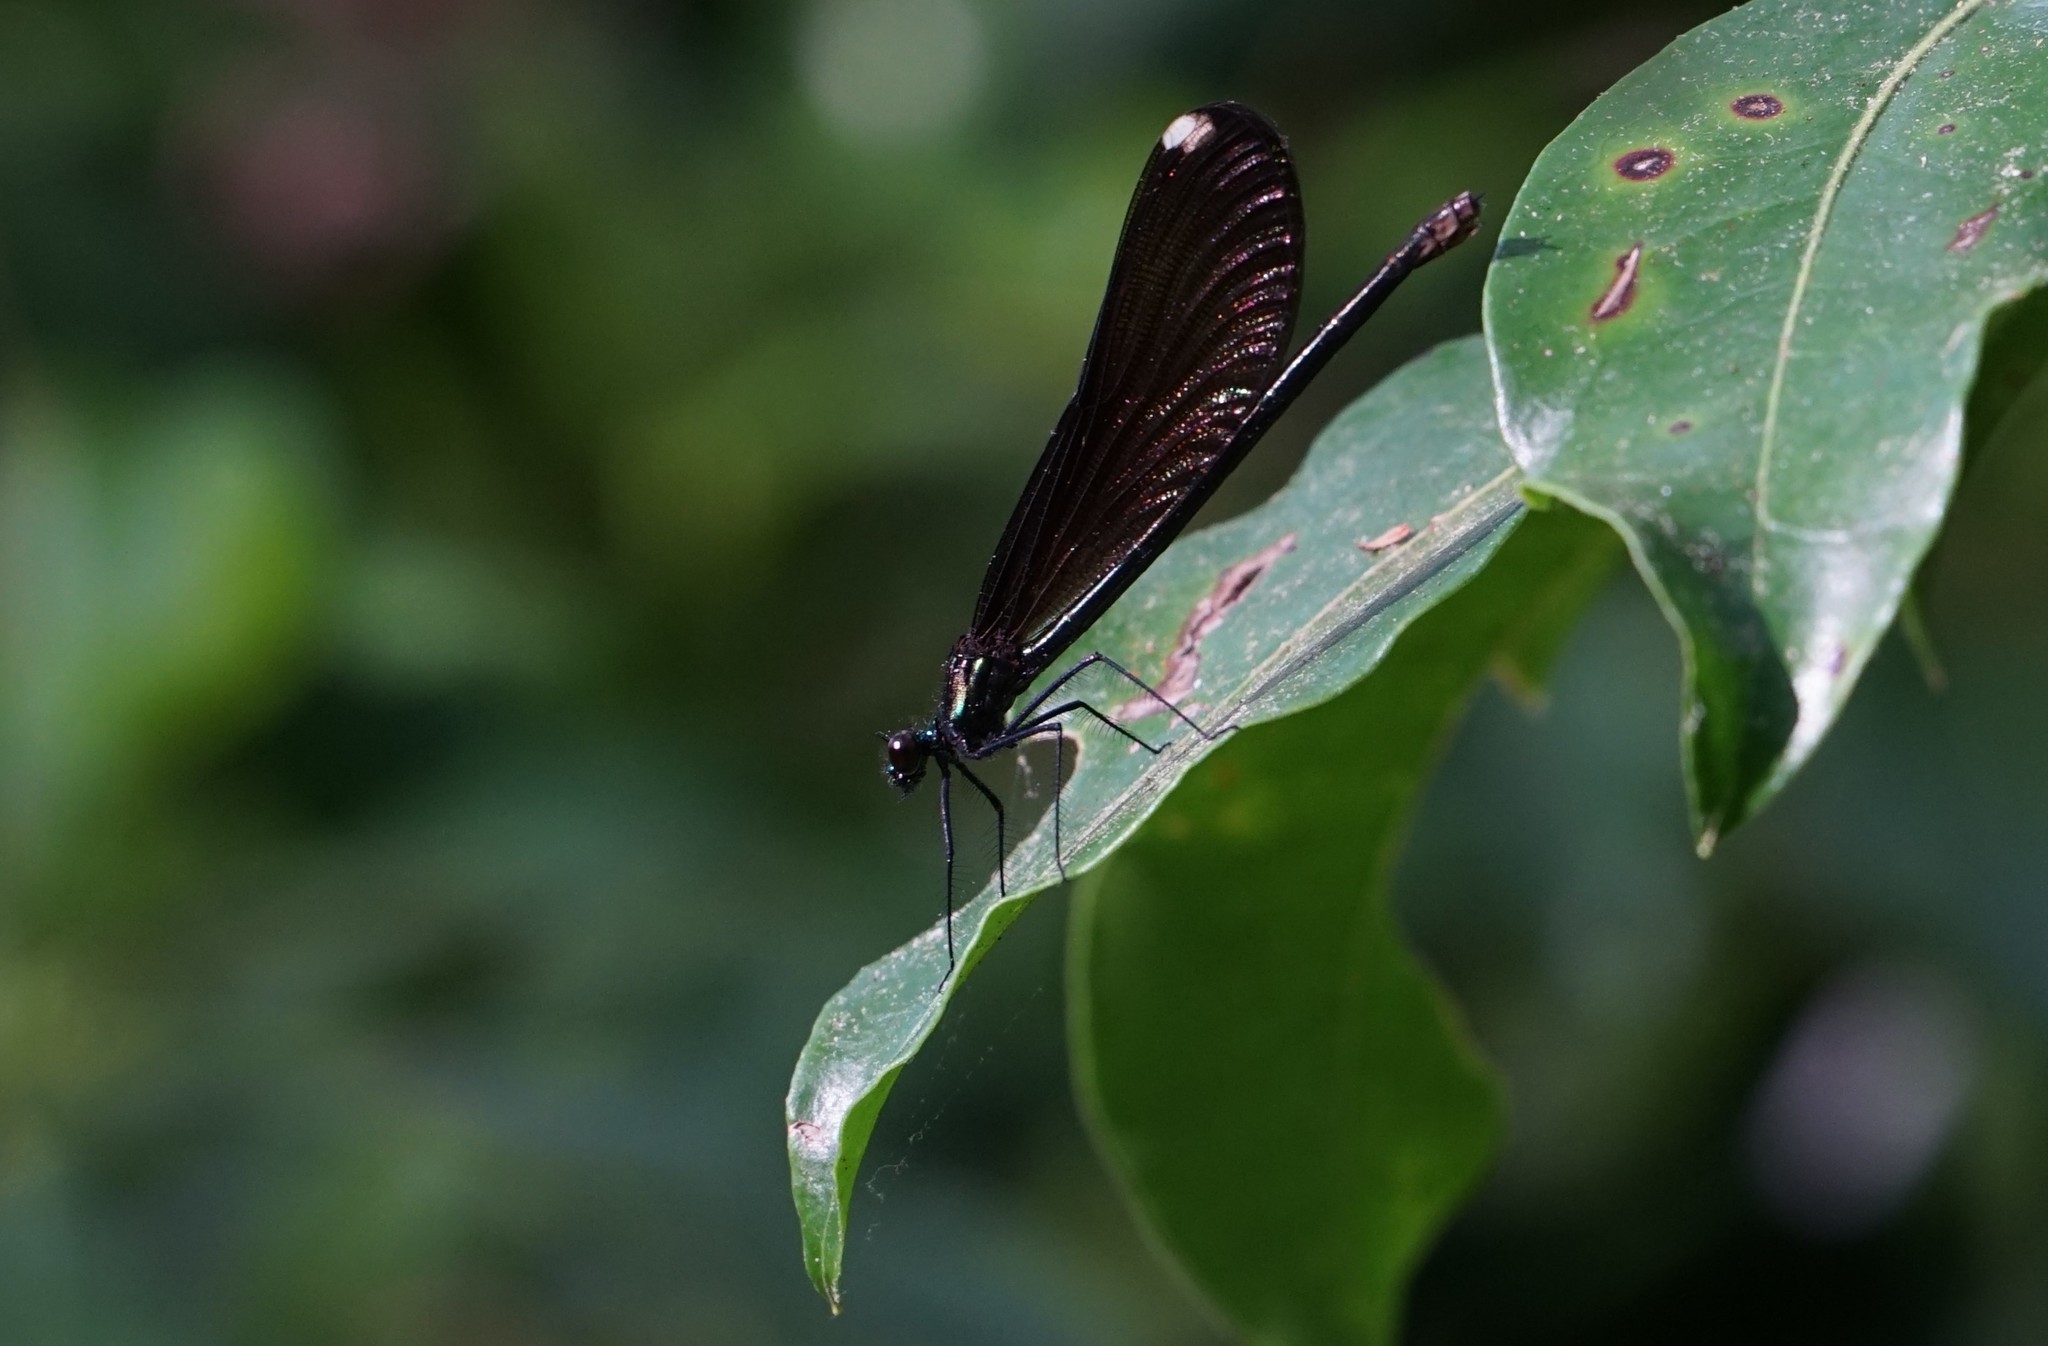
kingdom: Animalia
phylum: Arthropoda
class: Insecta
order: Odonata
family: Calopterygidae
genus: Calopteryx
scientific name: Calopteryx maculata
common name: Ebony jewelwing
